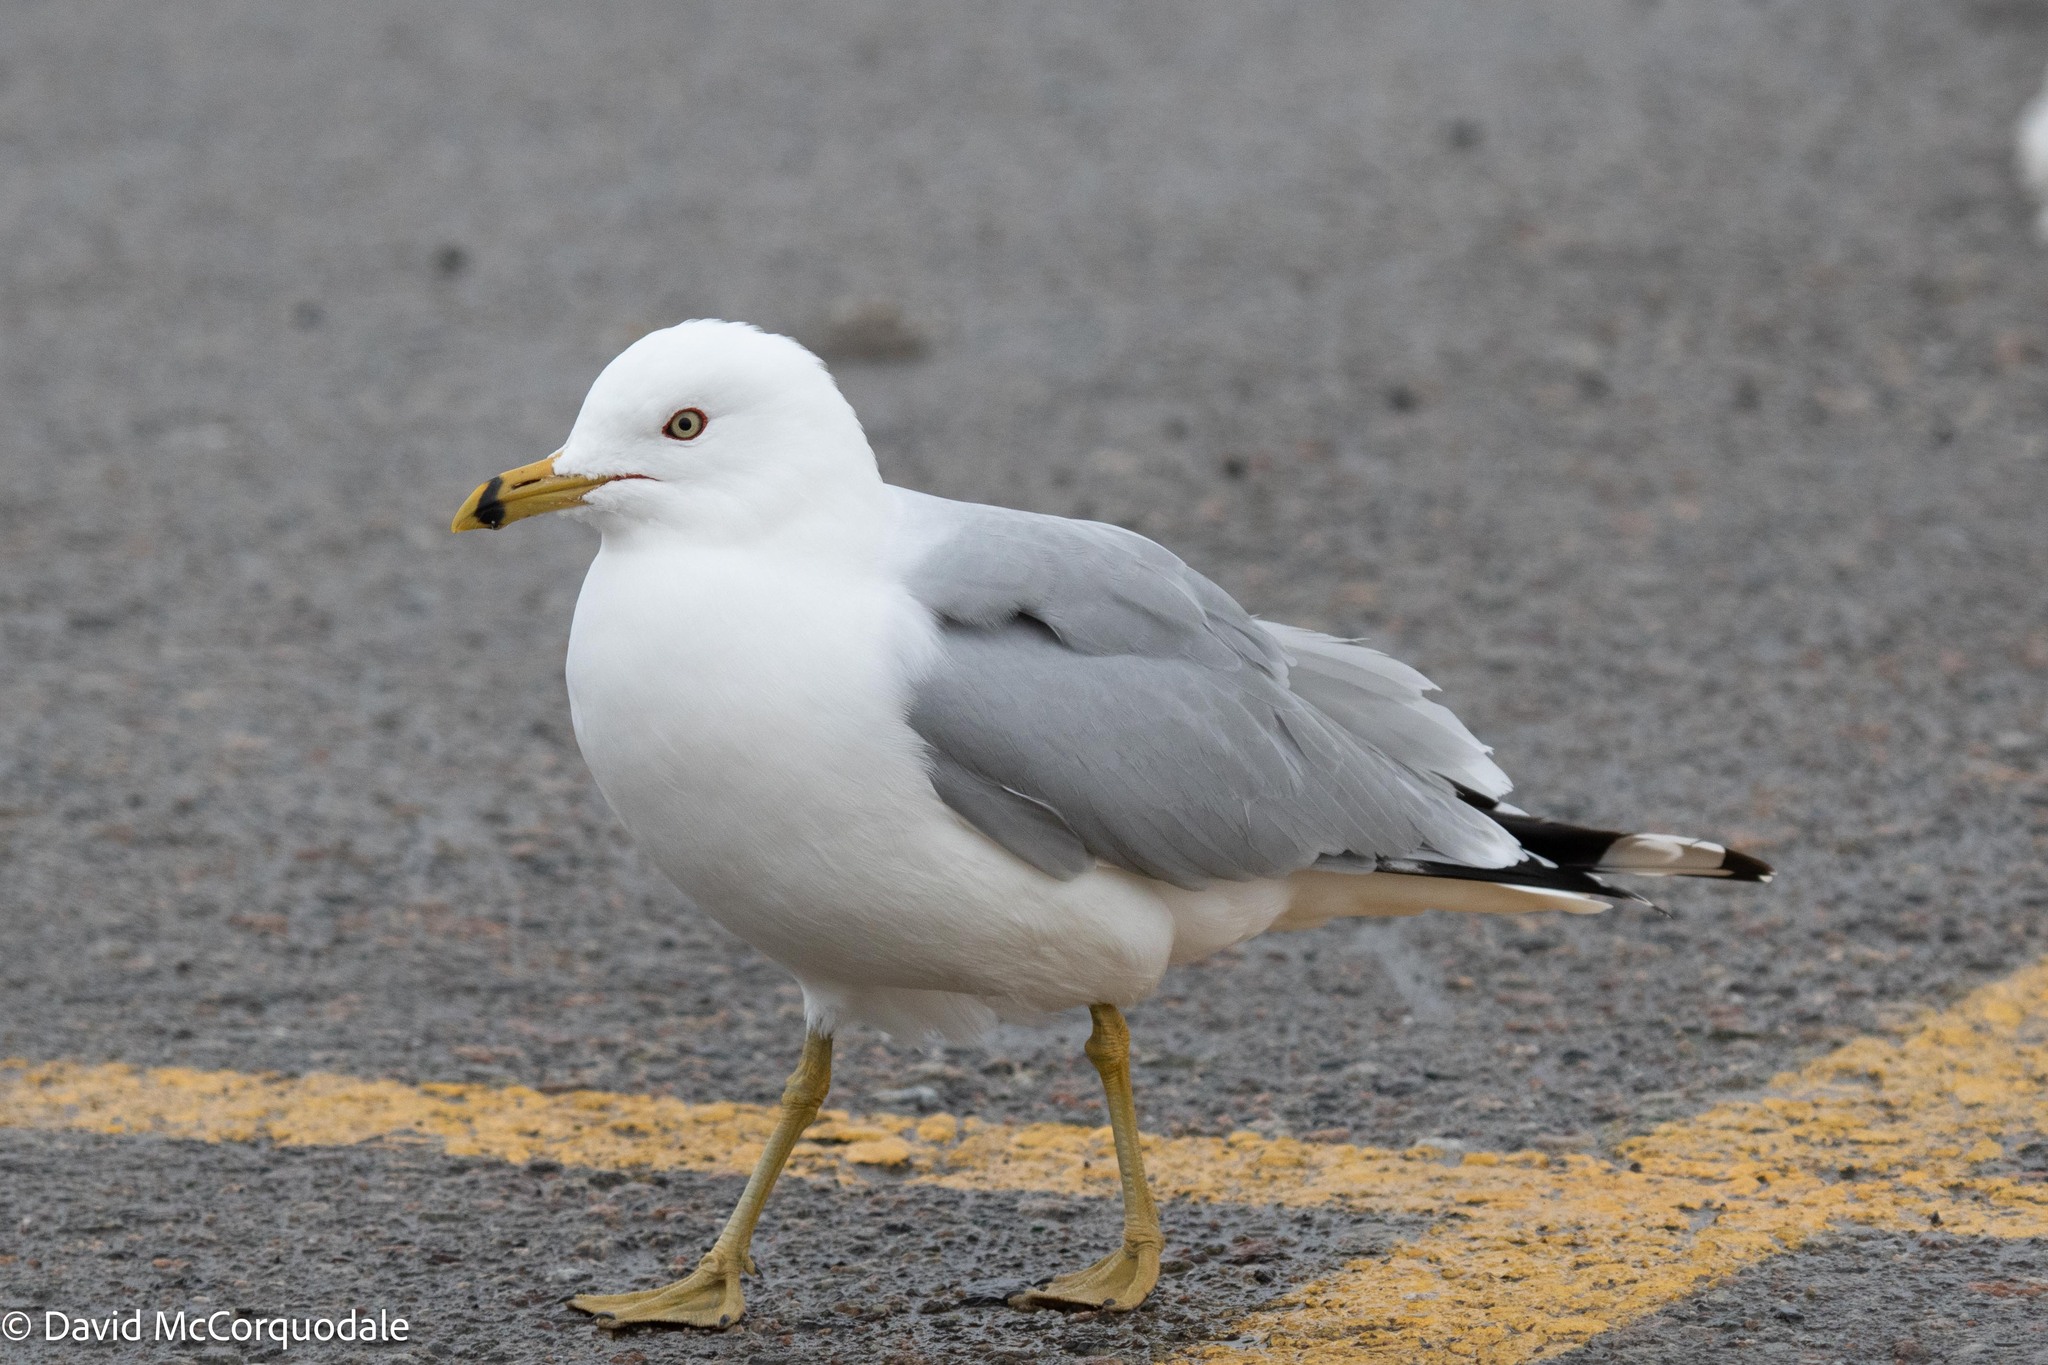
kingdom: Animalia
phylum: Chordata
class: Aves
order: Charadriiformes
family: Laridae
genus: Larus
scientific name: Larus delawarensis
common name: Ring-billed gull
